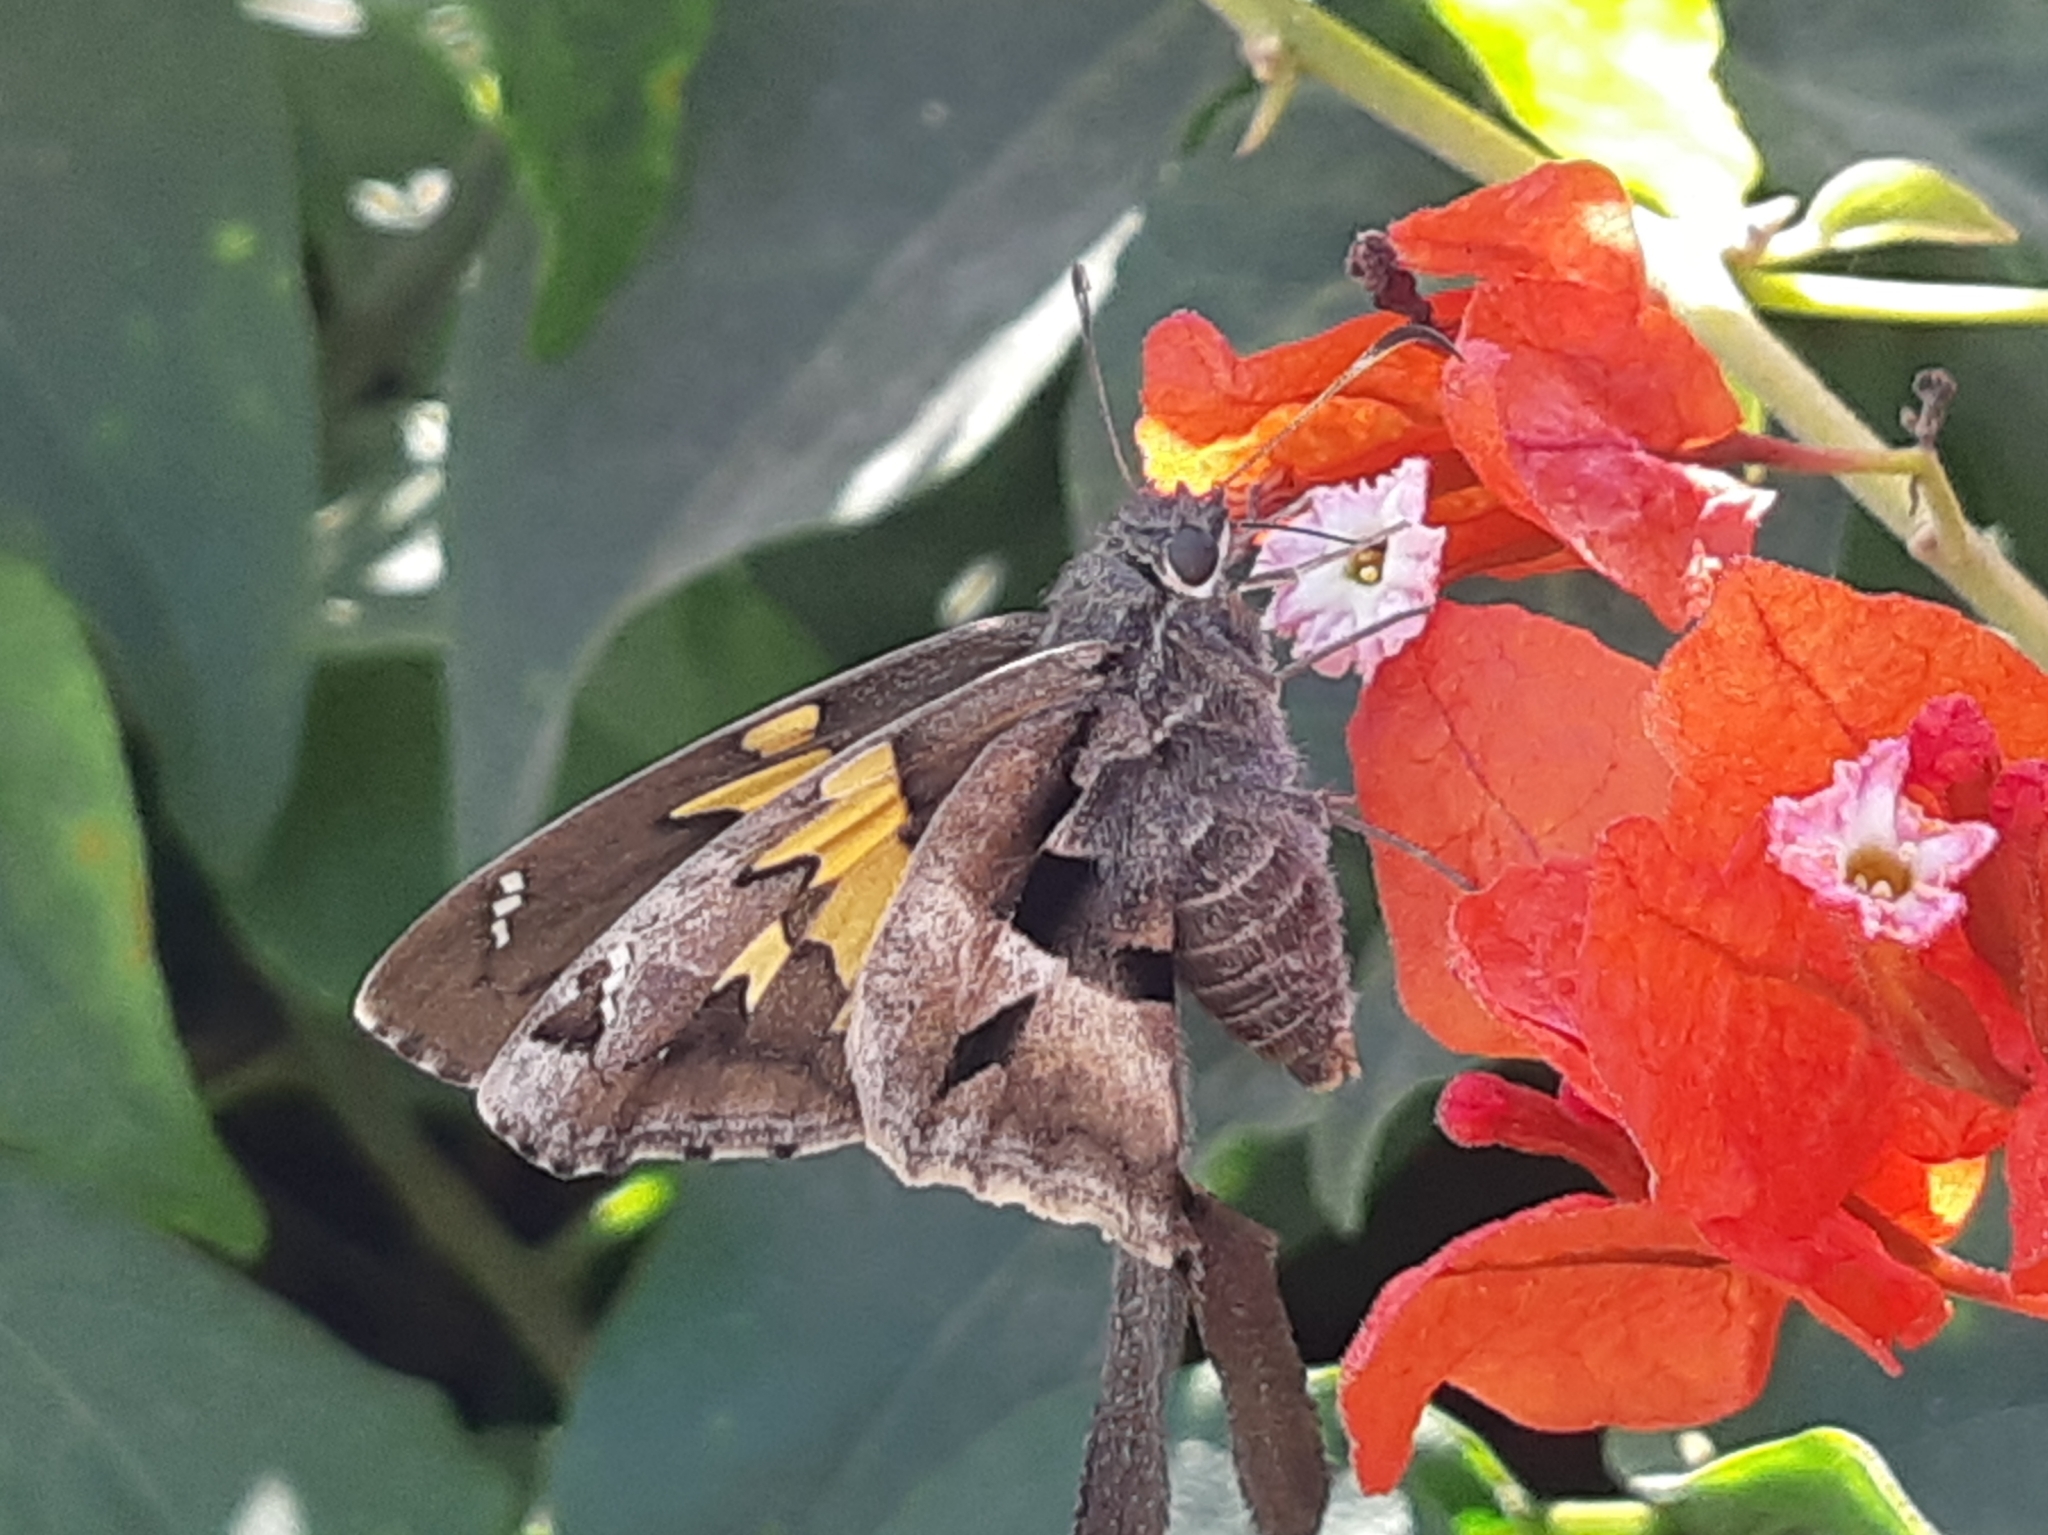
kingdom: Animalia
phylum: Arthropoda
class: Insecta
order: Lepidoptera
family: Hesperiidae
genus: Chioides
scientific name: Chioides iverna
